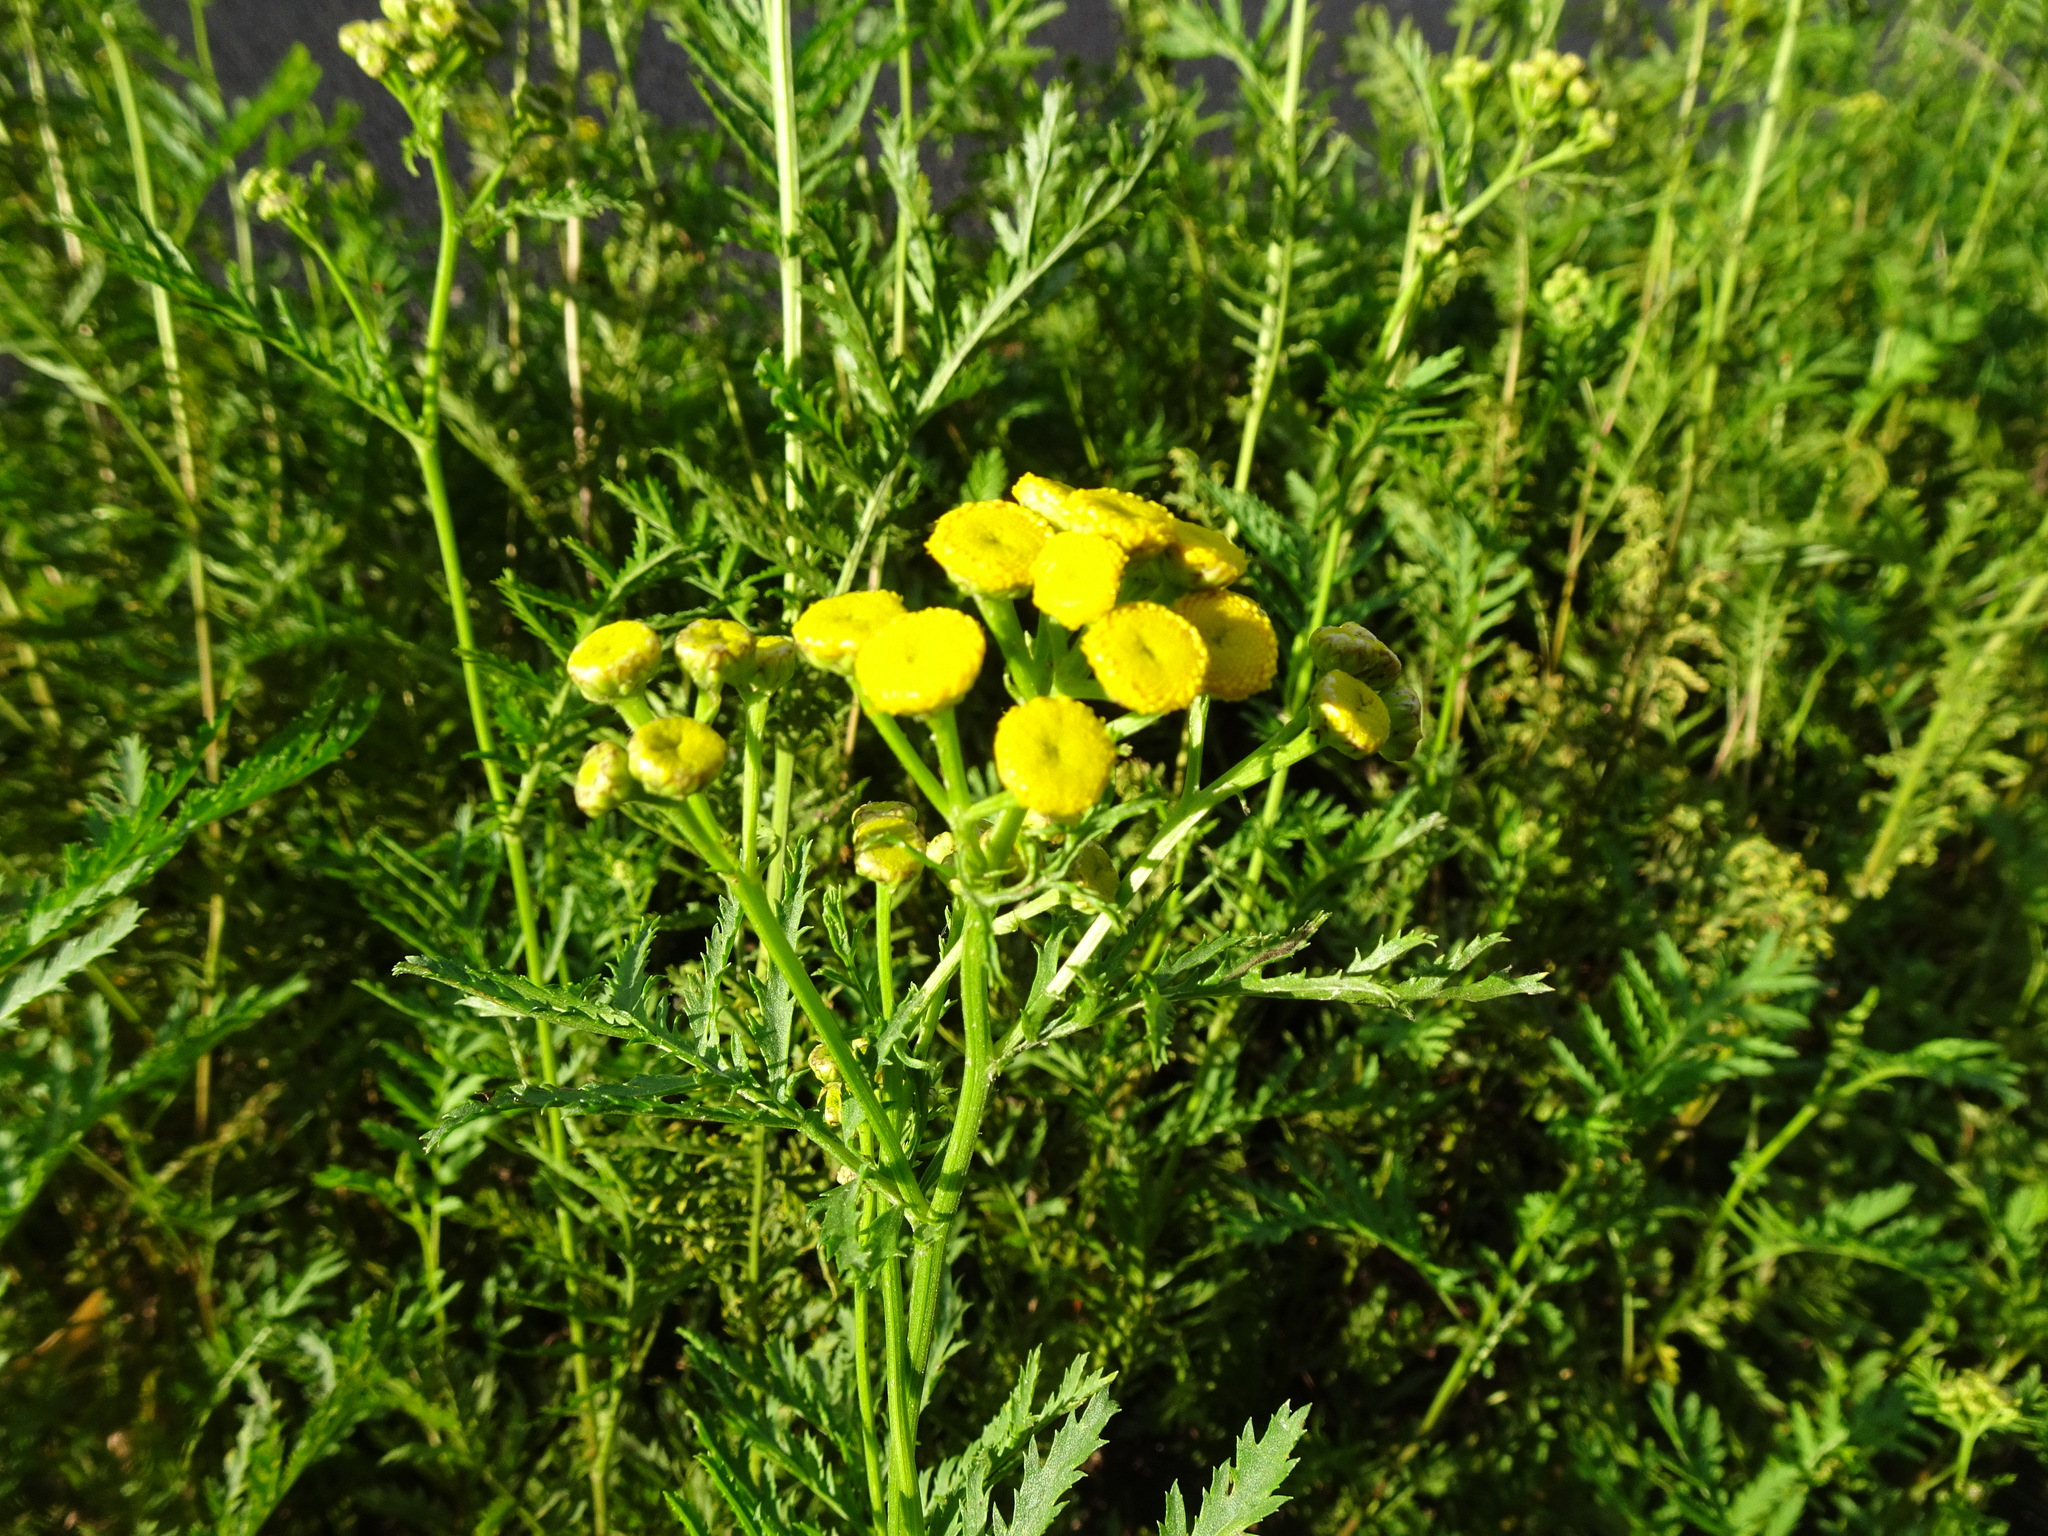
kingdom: Plantae
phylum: Tracheophyta
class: Magnoliopsida
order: Asterales
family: Asteraceae
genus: Tanacetum
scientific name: Tanacetum vulgare
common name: Common tansy
